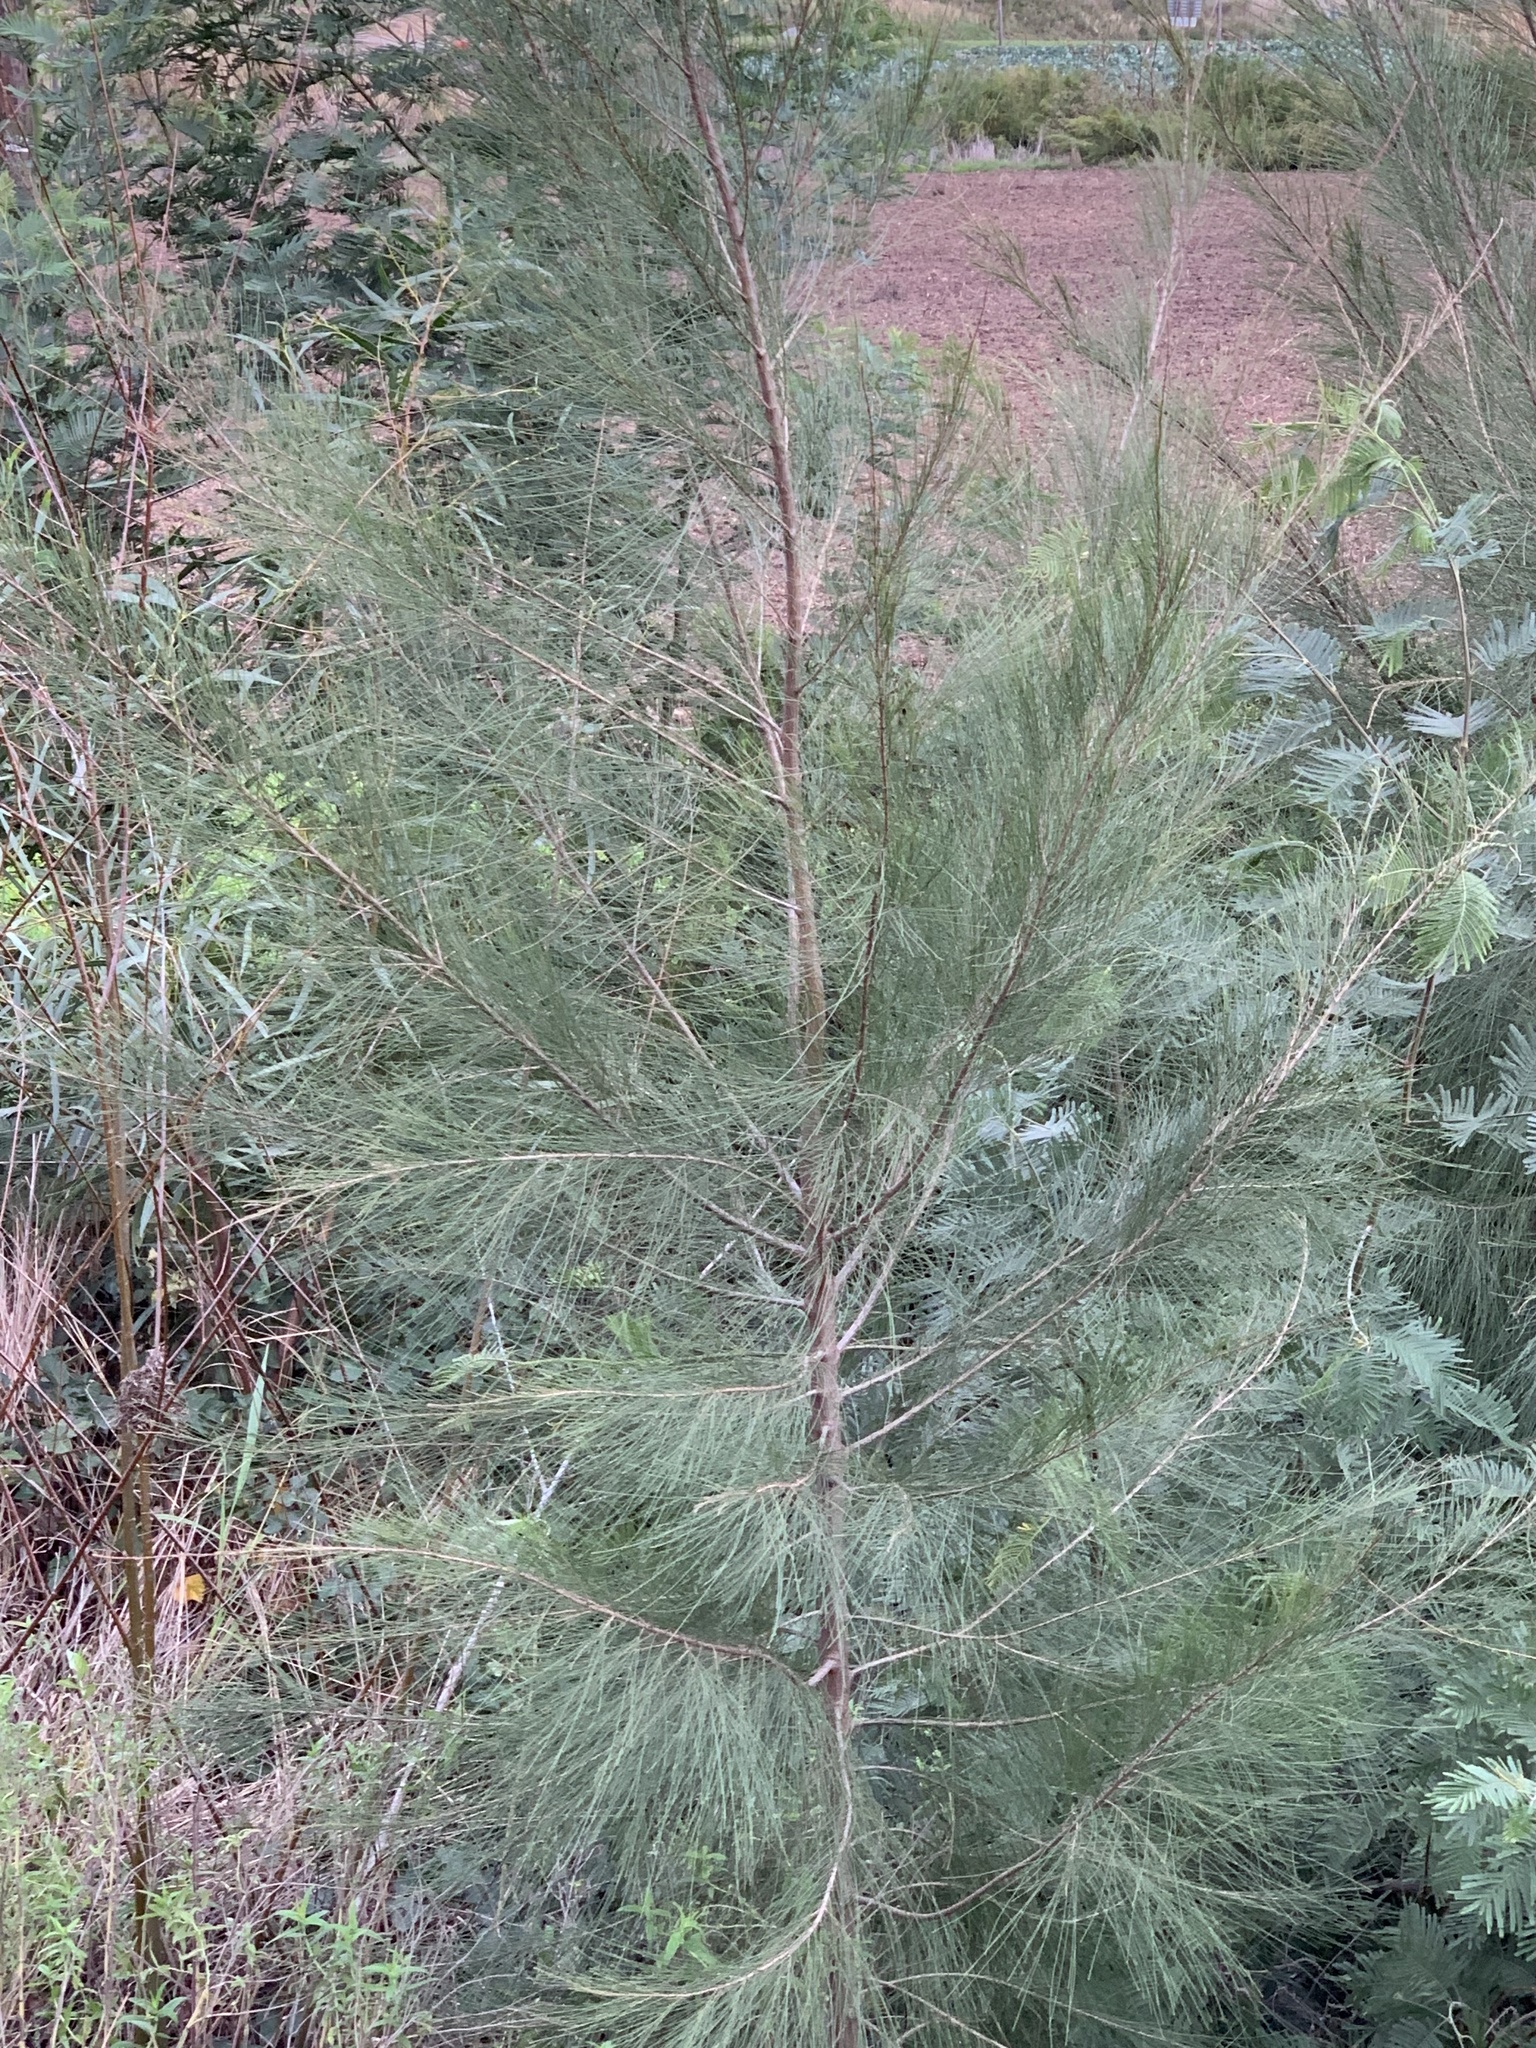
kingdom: Plantae
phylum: Tracheophyta
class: Magnoliopsida
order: Fagales
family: Casuarinaceae
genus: Casuarina
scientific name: Casuarina cunninghamiana
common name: River sheoak
